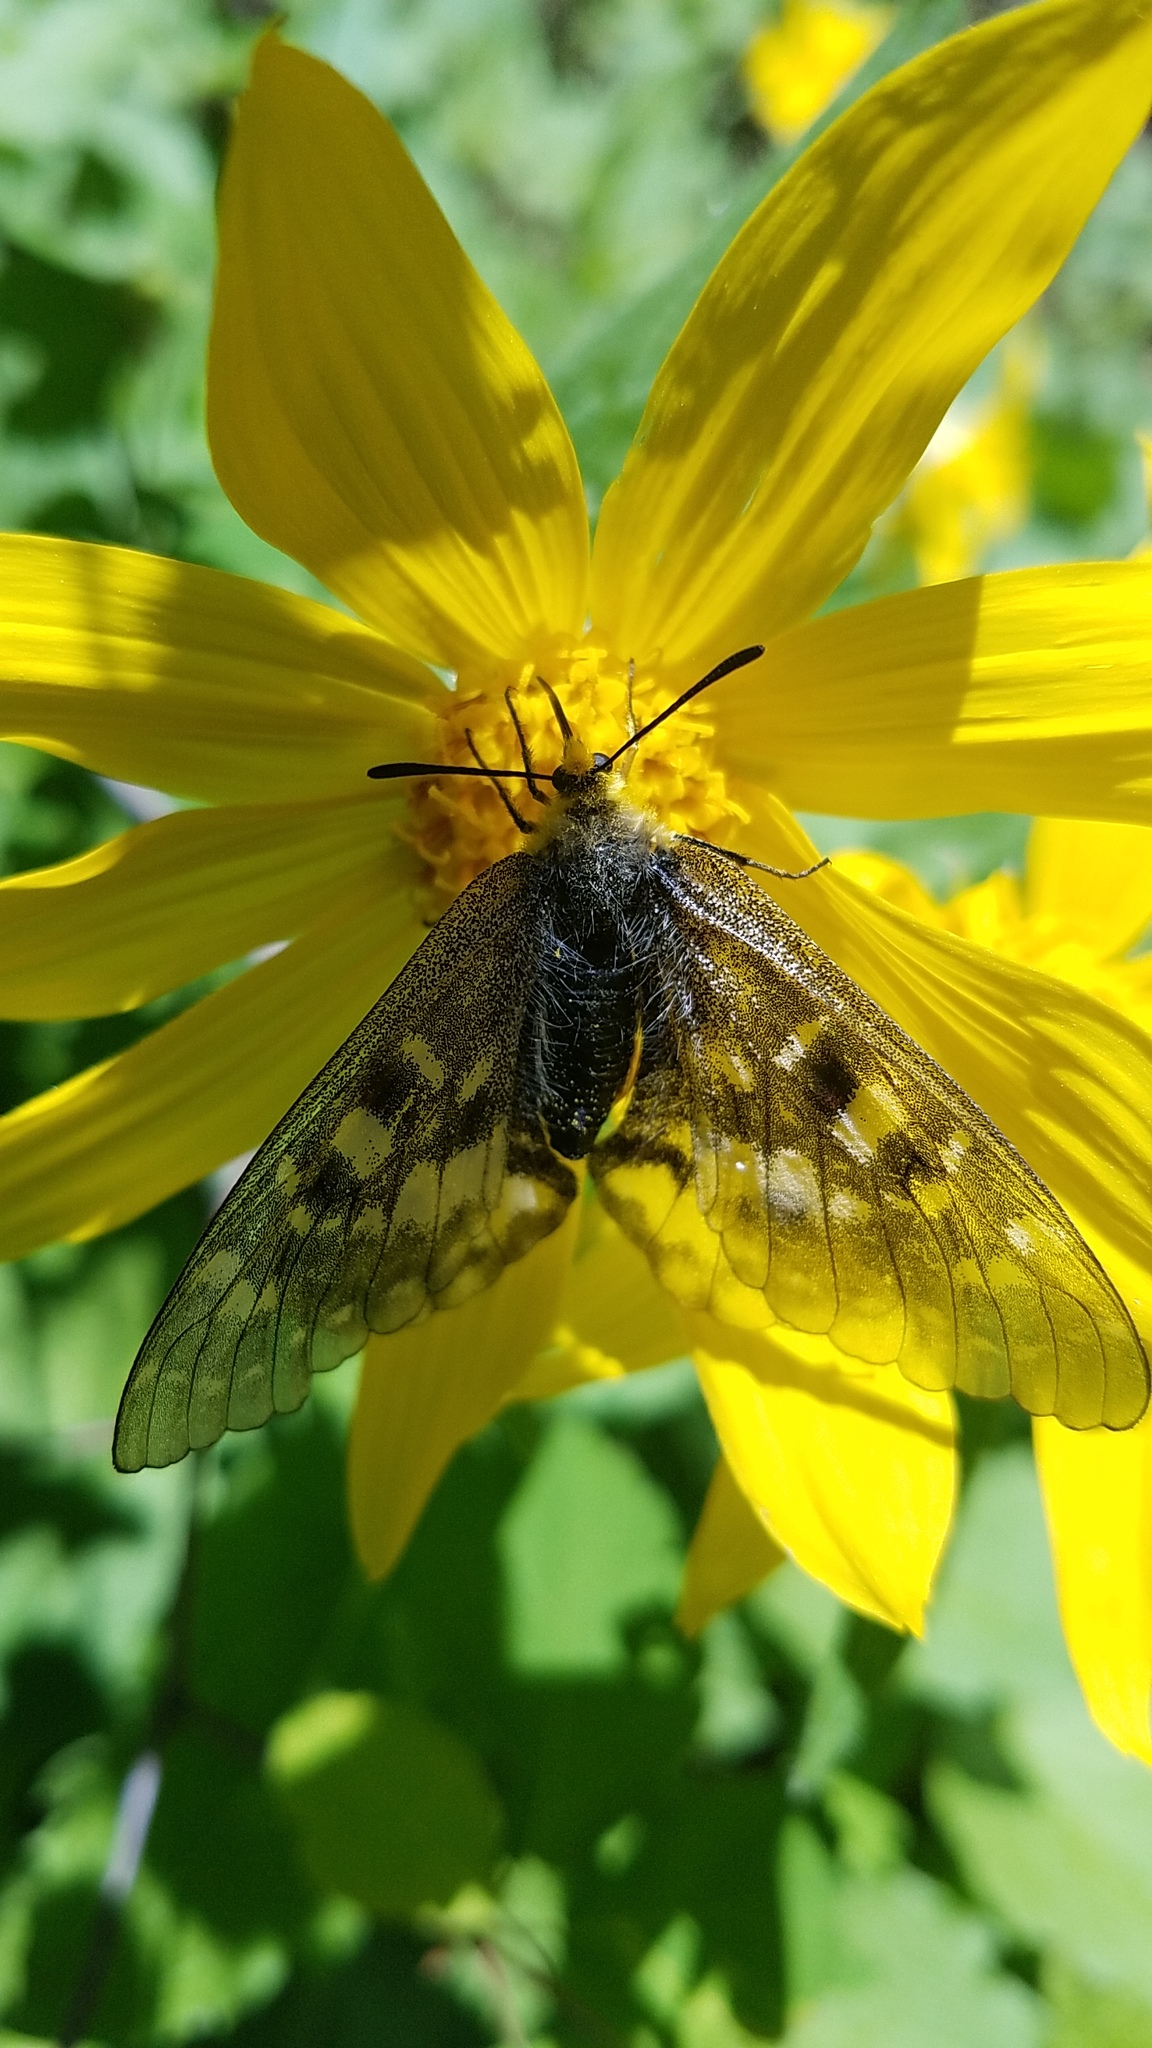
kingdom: Animalia
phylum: Arthropoda
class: Insecta
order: Lepidoptera
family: Papilionidae
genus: Parnassius
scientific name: Parnassius clodius
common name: American apollo
